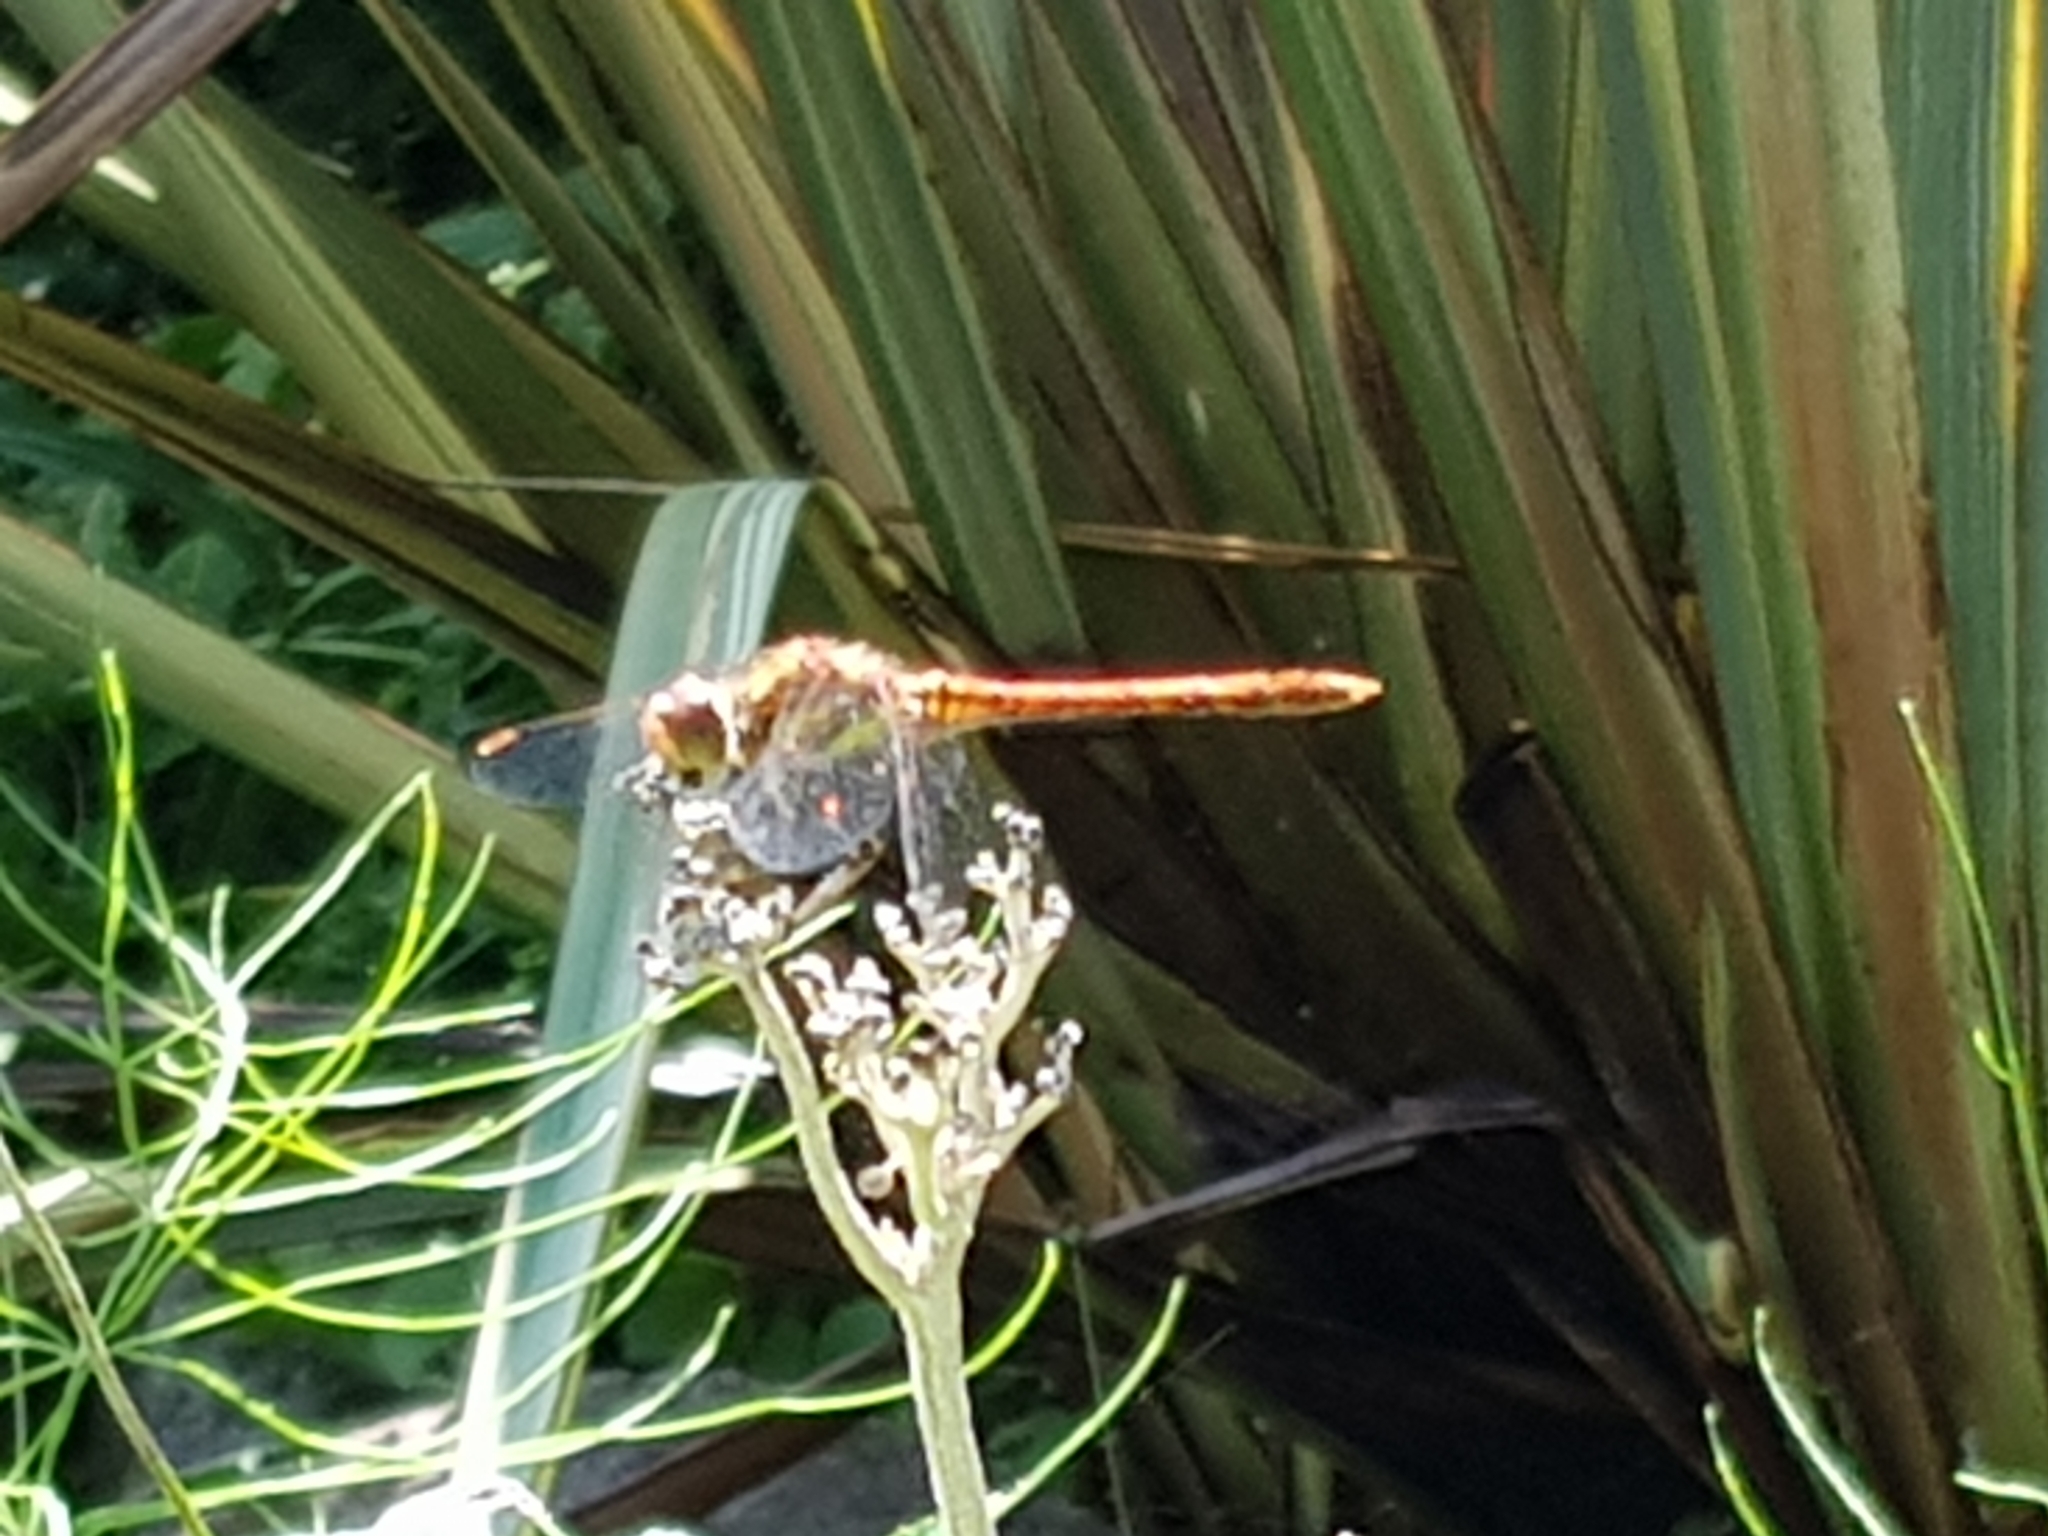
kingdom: Animalia
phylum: Arthropoda
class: Insecta
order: Odonata
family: Libellulidae
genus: Sympetrum
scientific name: Sympetrum striolatum
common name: Common darter
